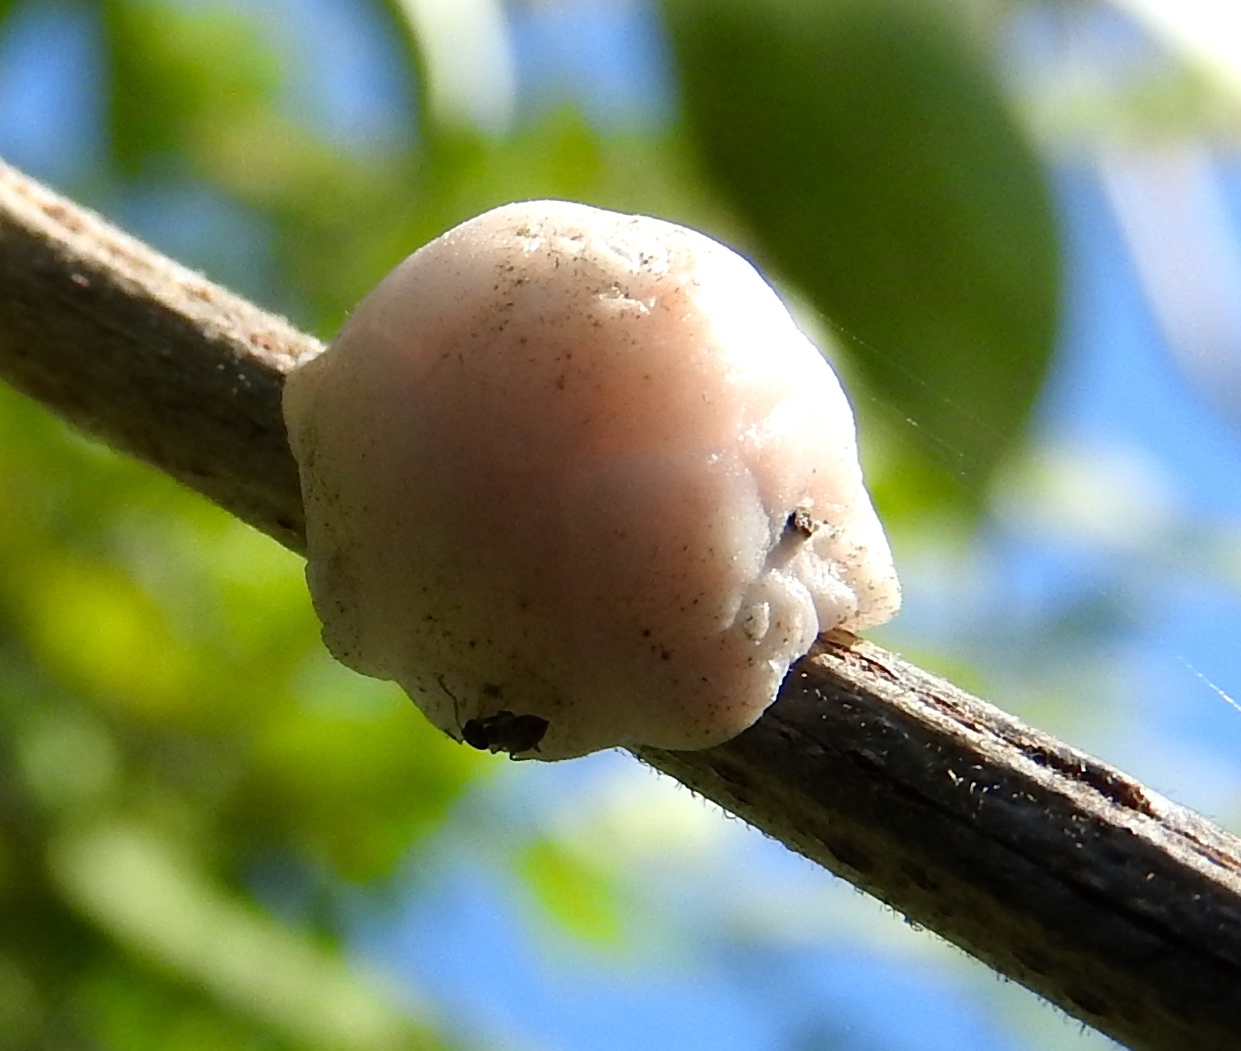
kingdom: Animalia
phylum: Arthropoda
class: Insecta
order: Hemiptera
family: Coccidae
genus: Ceroplastes
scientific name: Ceroplastes
